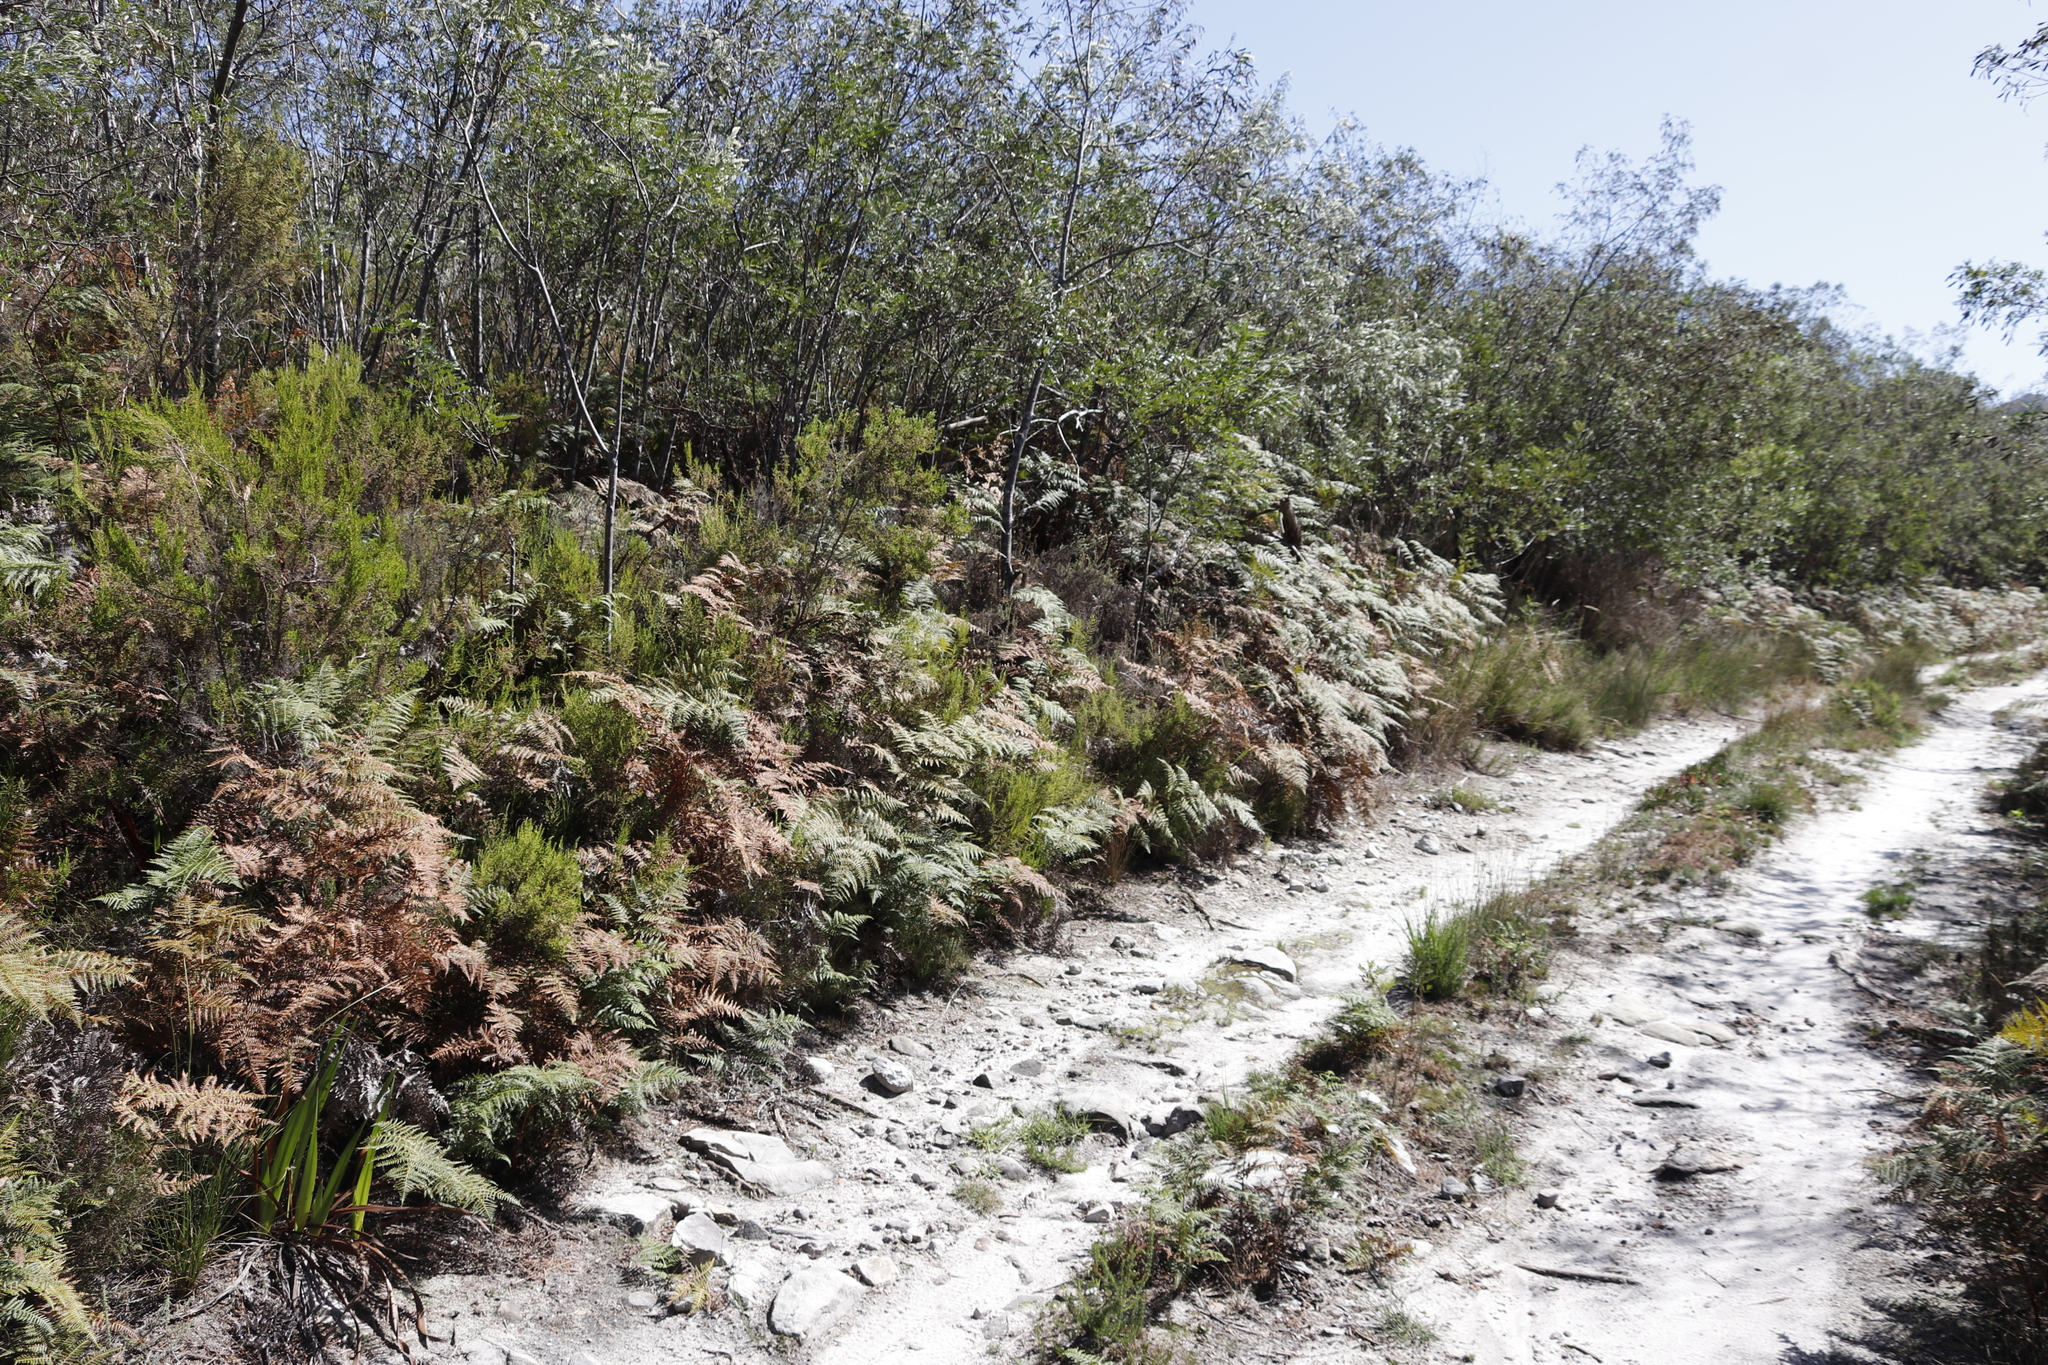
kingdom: Plantae
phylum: Tracheophyta
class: Polypodiopsida
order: Polypodiales
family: Dennstaedtiaceae
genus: Pteridium
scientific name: Pteridium aquilinum
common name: Bracken
